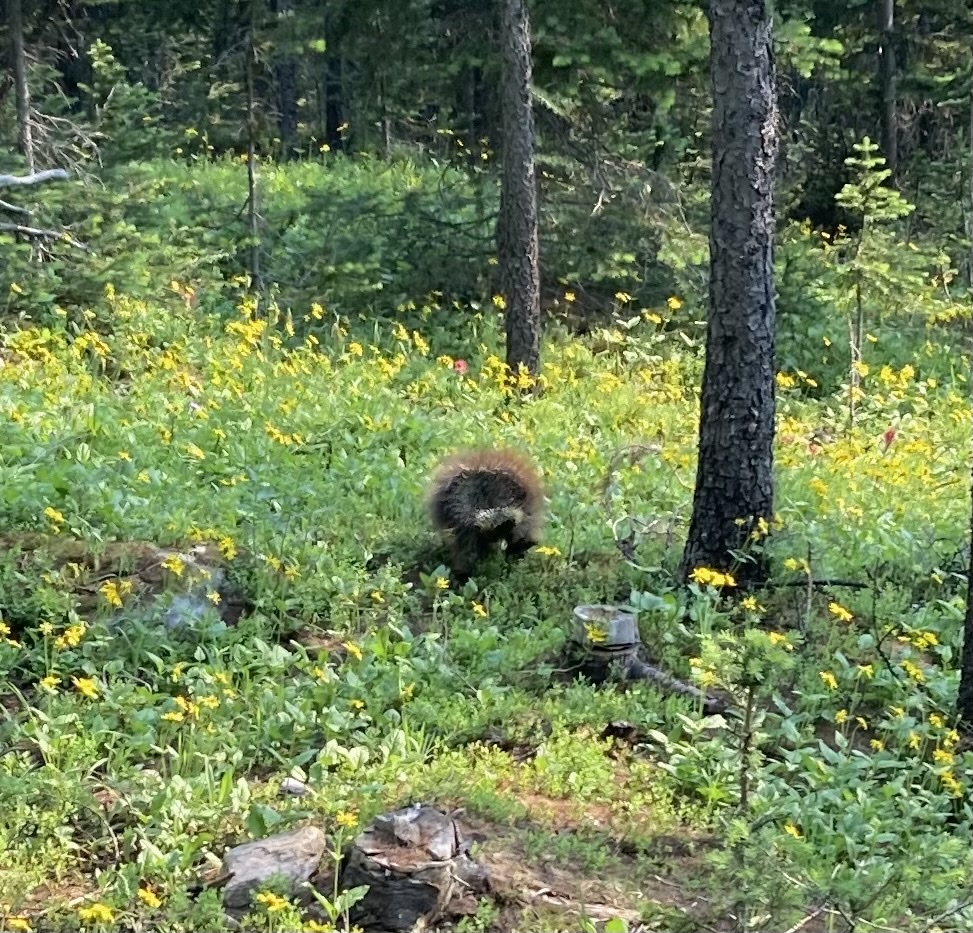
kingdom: Animalia
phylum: Chordata
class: Mammalia
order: Rodentia
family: Erethizontidae
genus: Erethizon
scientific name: Erethizon dorsatus
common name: North american porcupine
